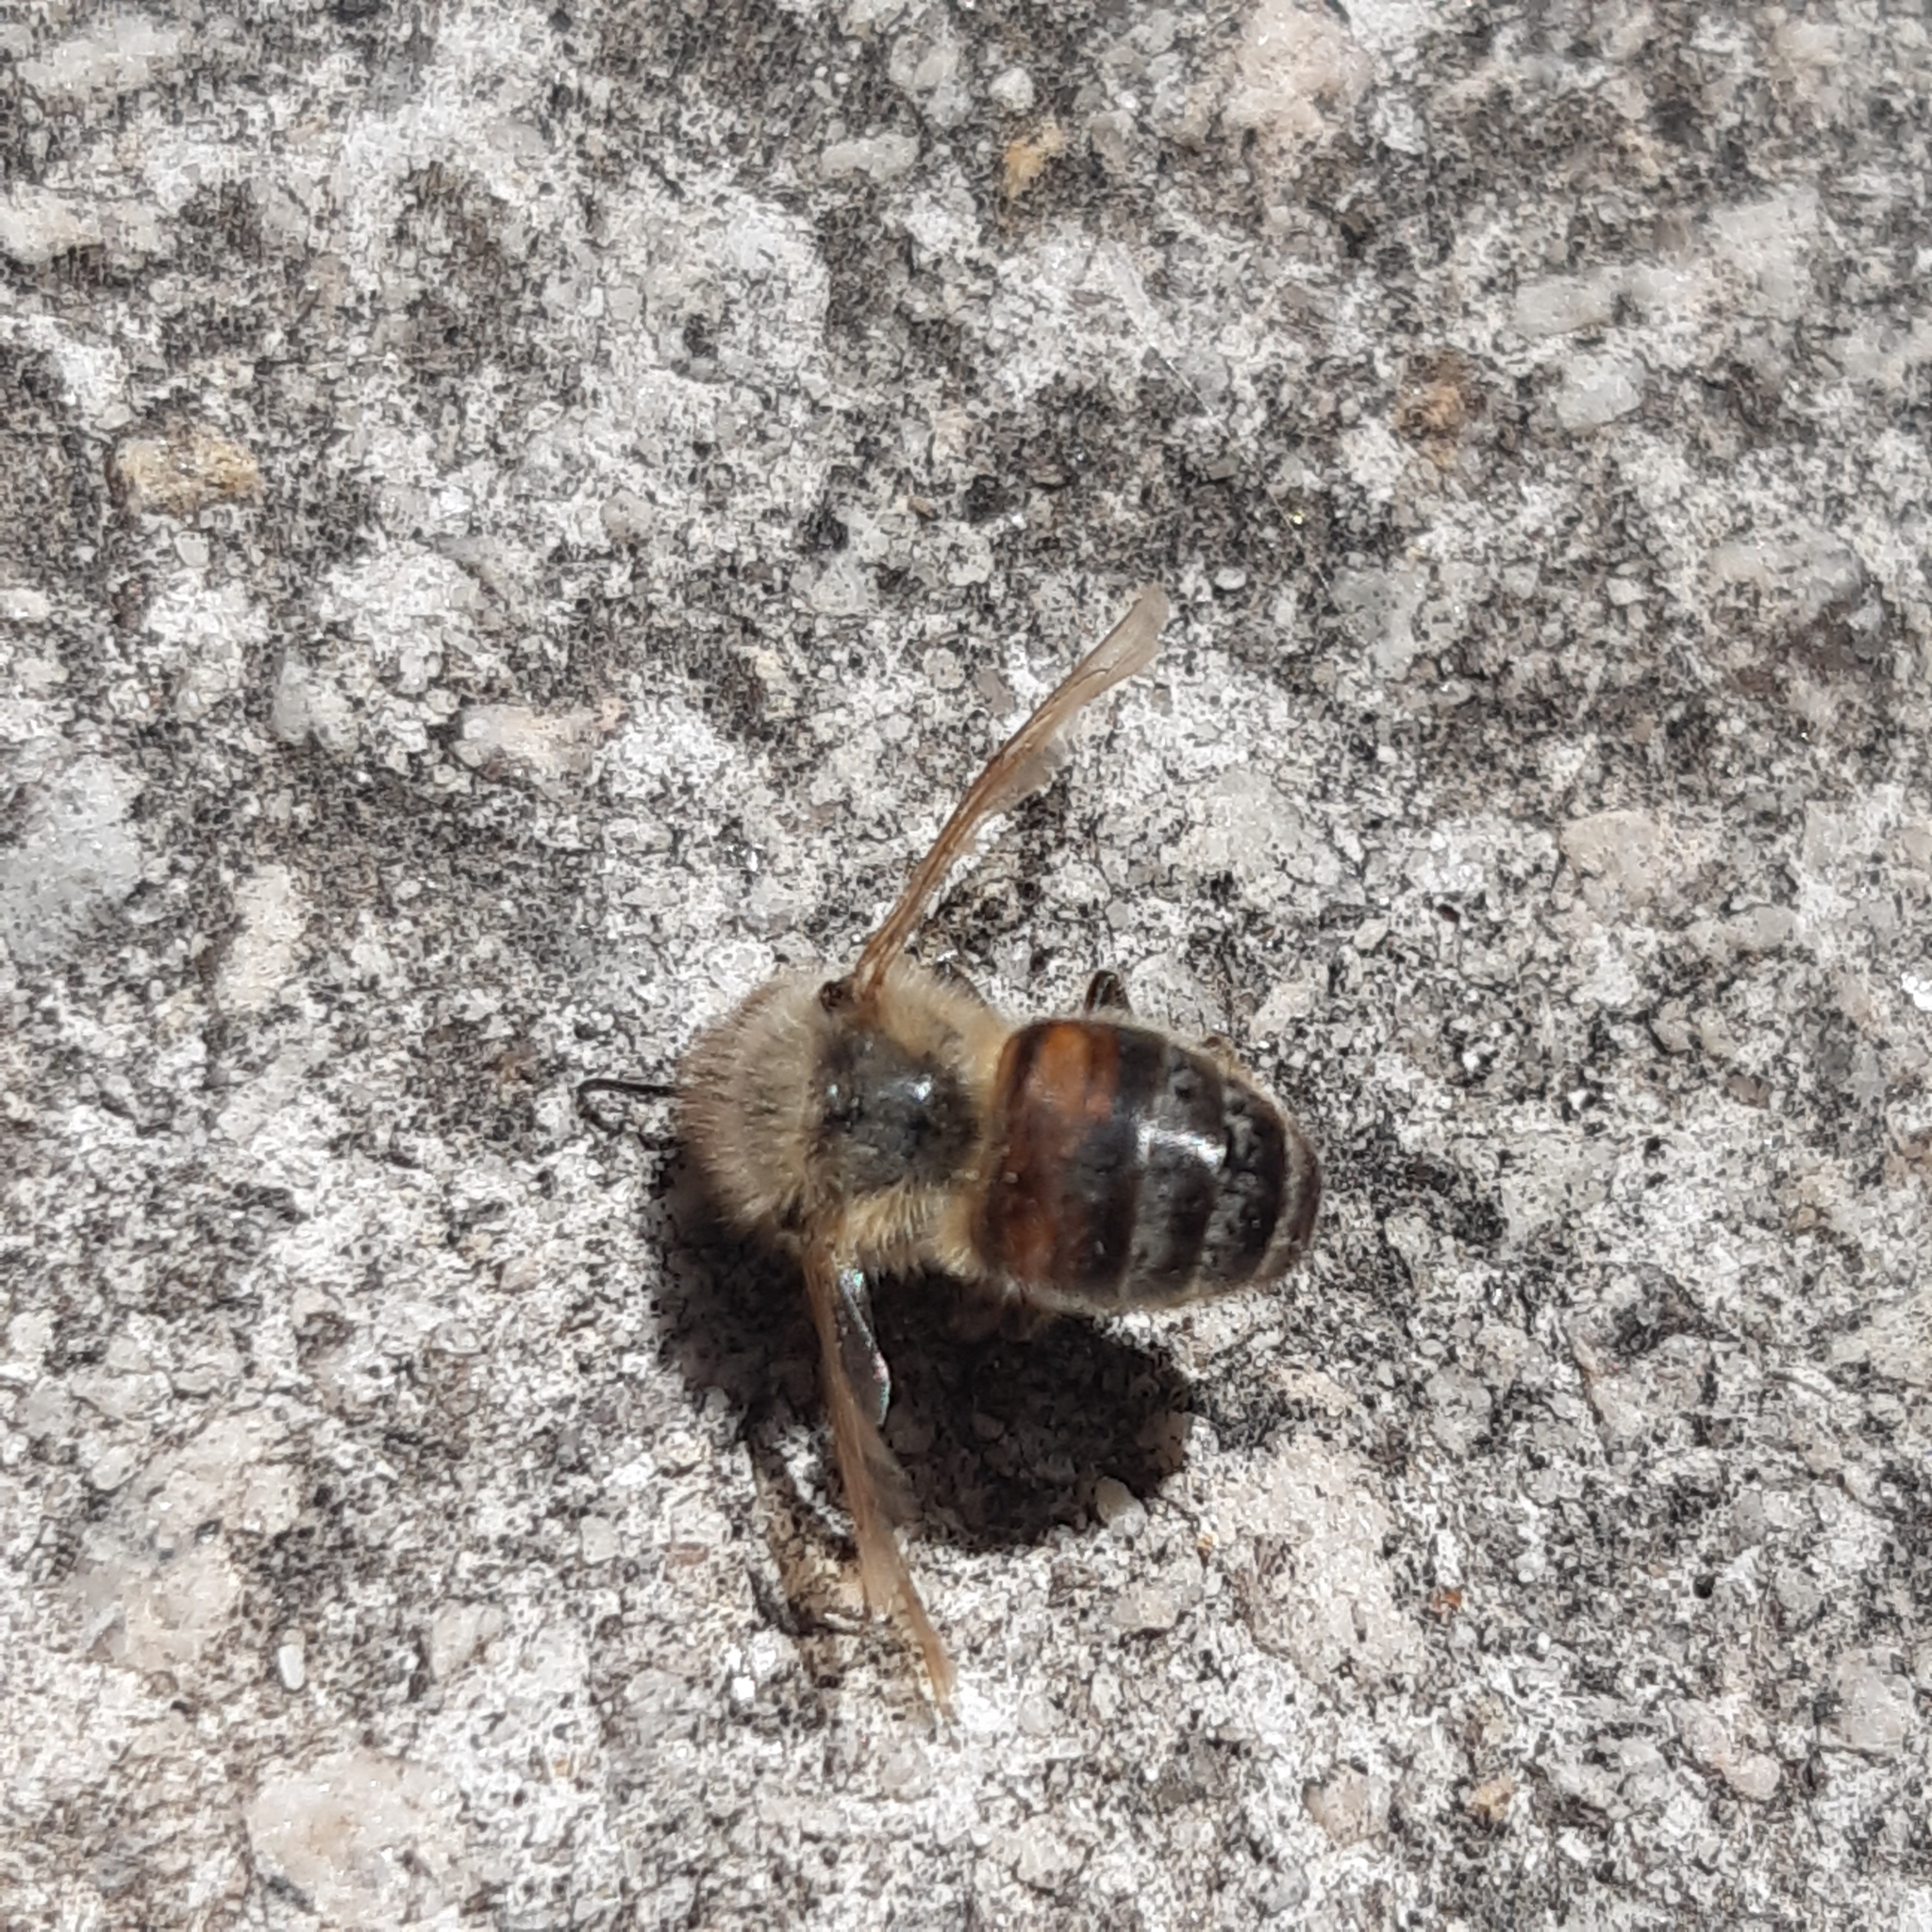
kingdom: Animalia
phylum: Arthropoda
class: Insecta
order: Hymenoptera
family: Apidae
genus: Apis
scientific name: Apis mellifera
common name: Honey bee
